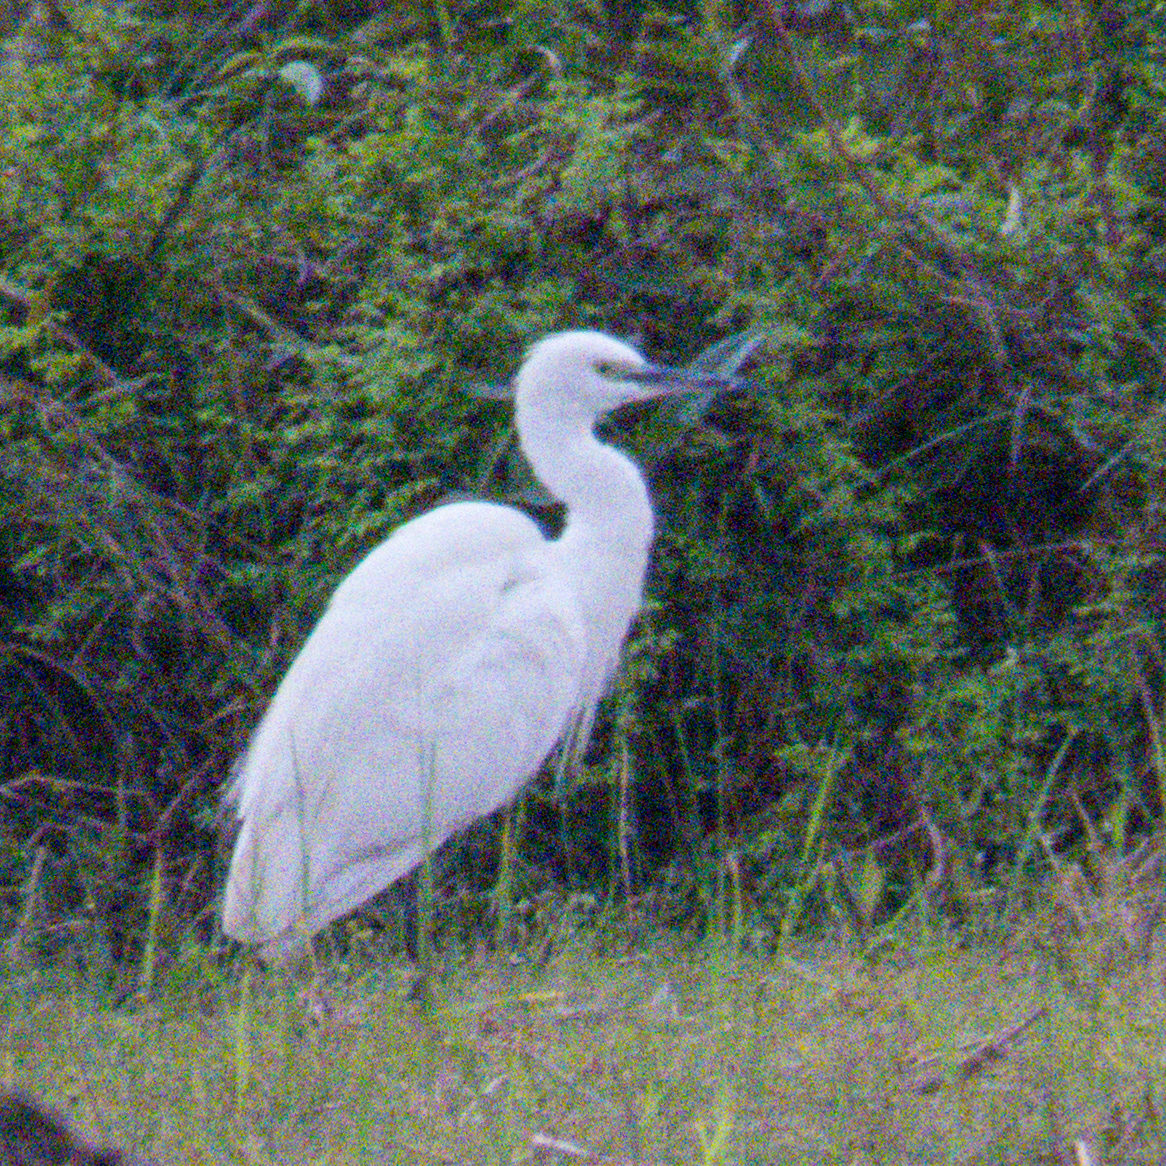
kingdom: Animalia
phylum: Chordata
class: Aves
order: Pelecaniformes
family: Ardeidae
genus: Egretta
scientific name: Egretta garzetta
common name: Little egret
